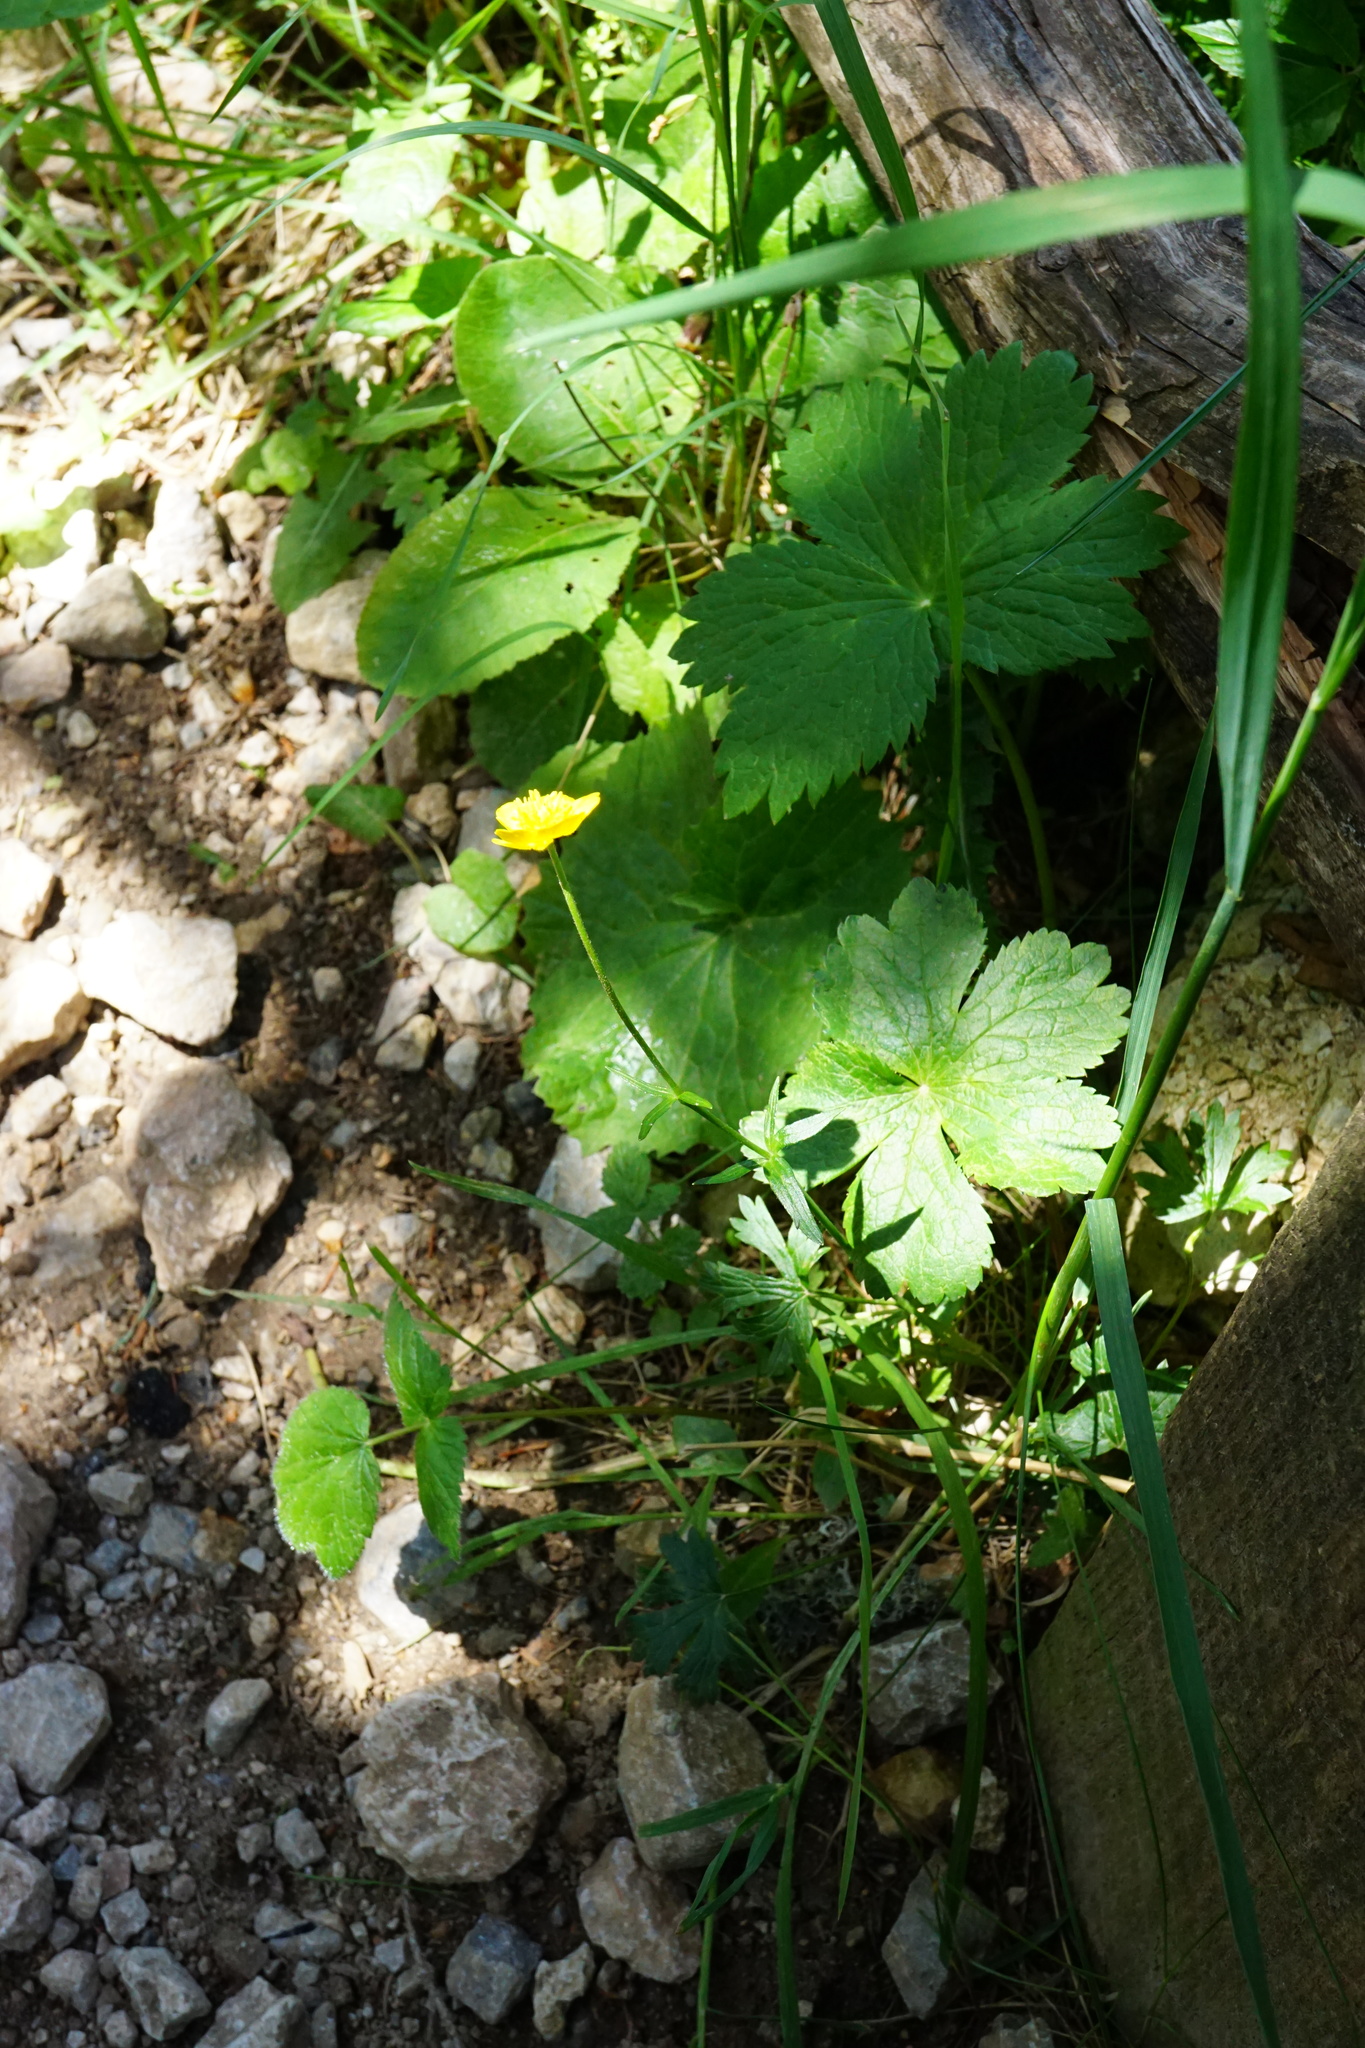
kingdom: Plantae
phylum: Tracheophyta
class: Magnoliopsida
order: Ranunculales
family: Ranunculaceae
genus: Ranunculus
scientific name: Ranunculus montanus
